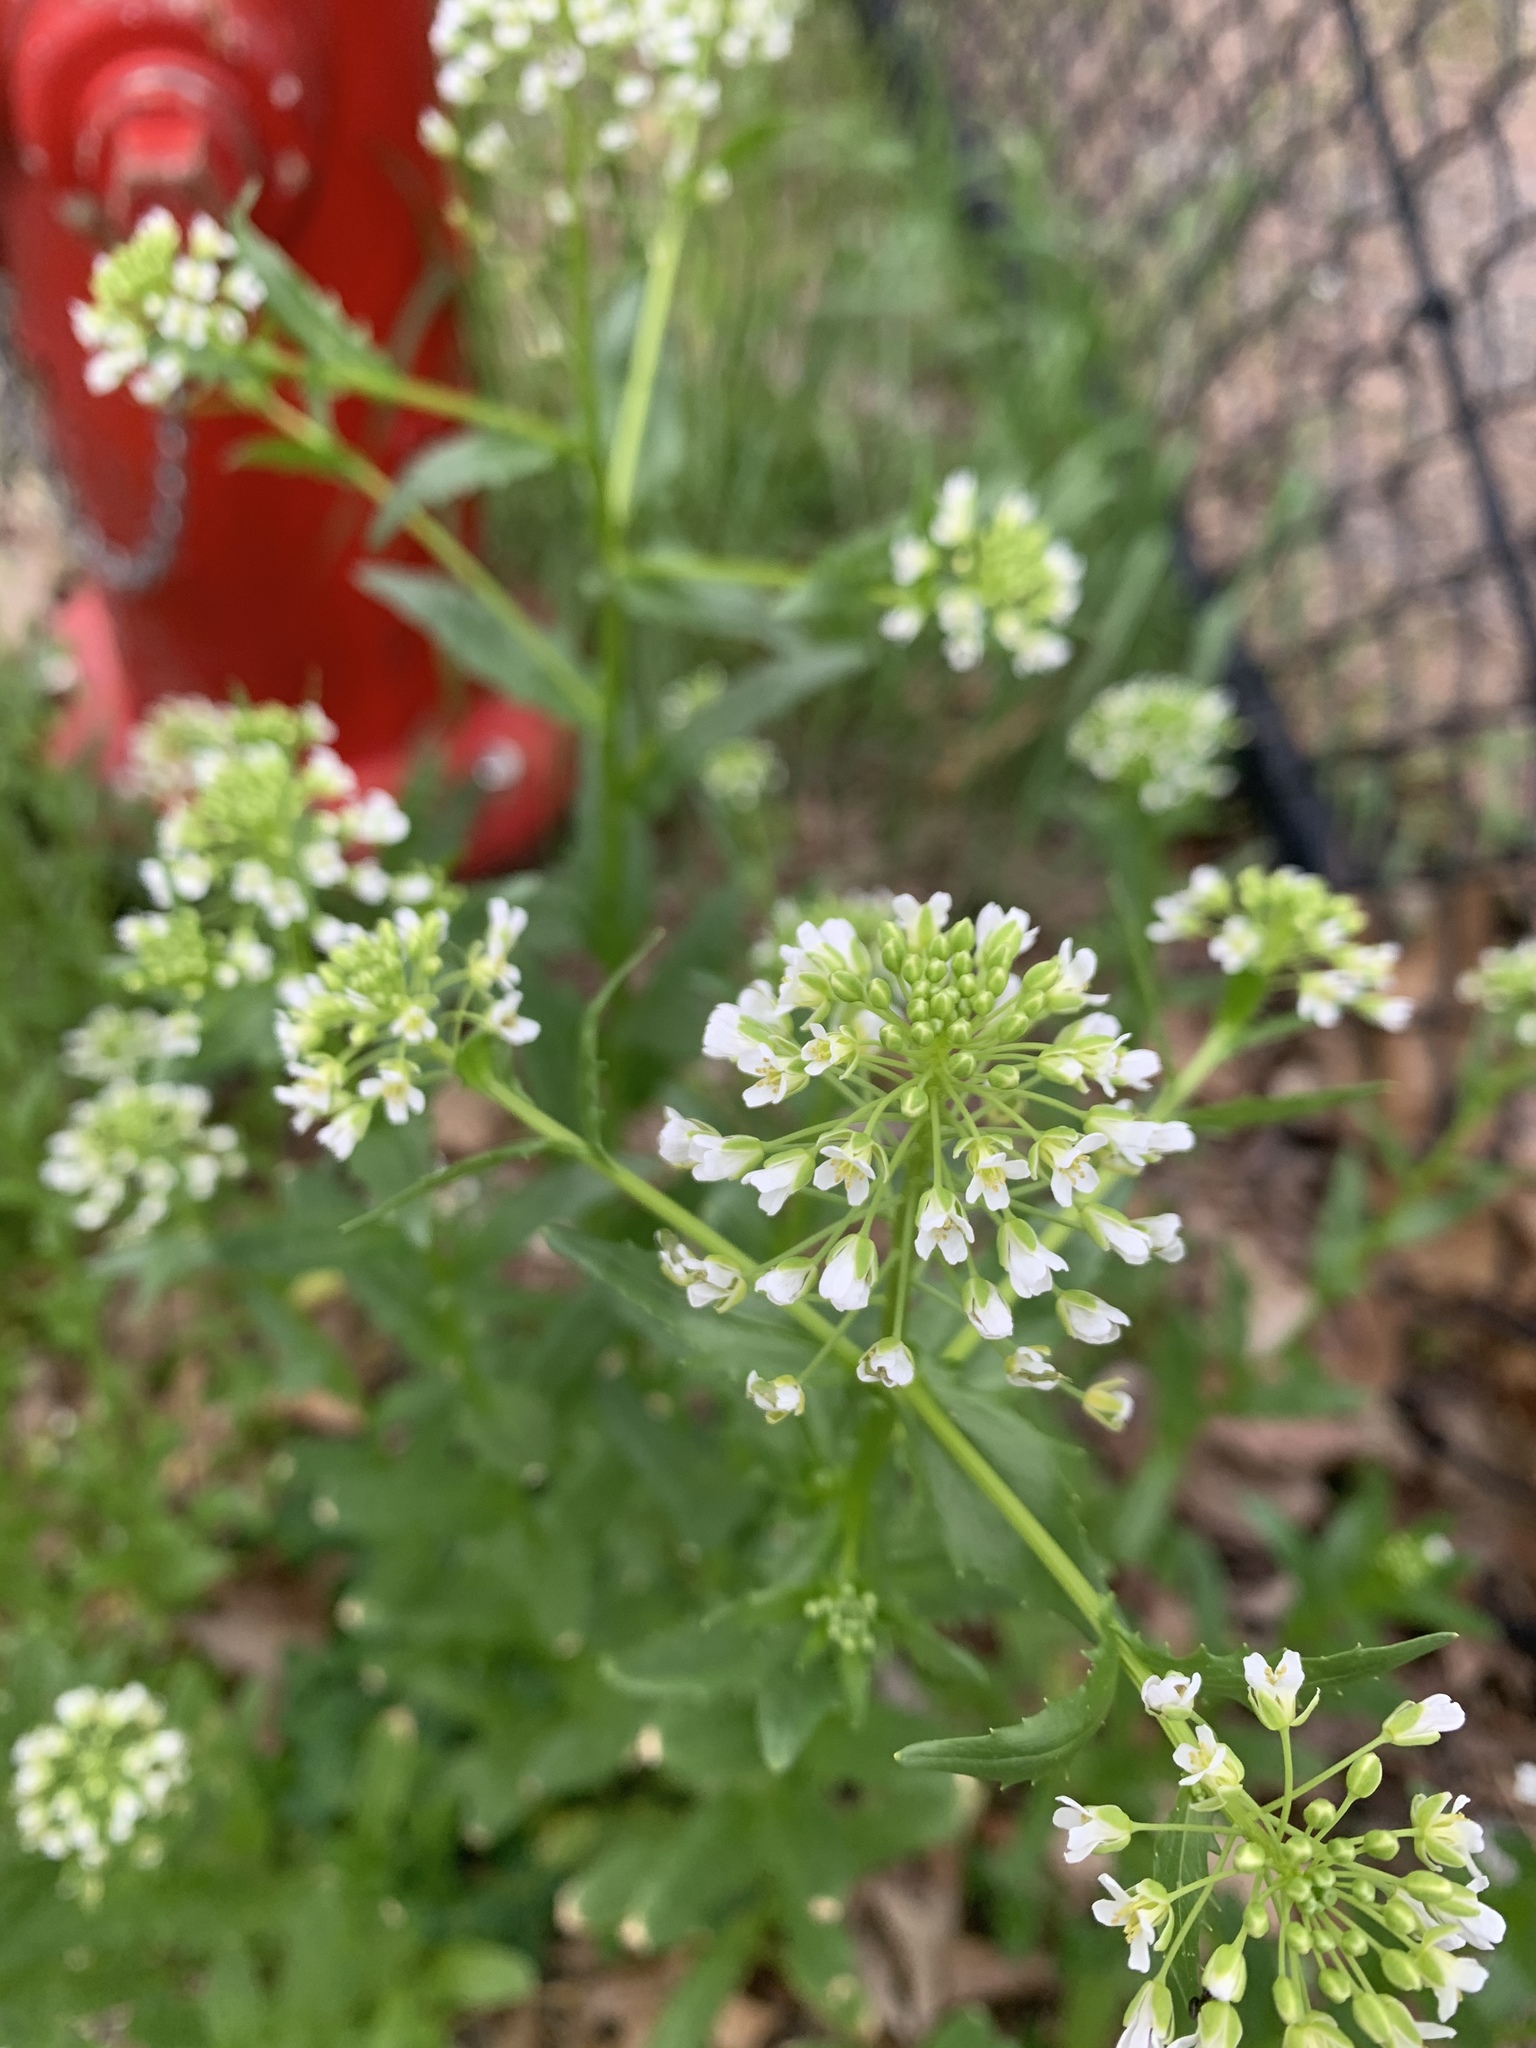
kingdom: Plantae
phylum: Tracheophyta
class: Magnoliopsida
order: Brassicales
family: Brassicaceae
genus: Thlaspi
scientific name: Thlaspi arvense
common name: Field pennycress
